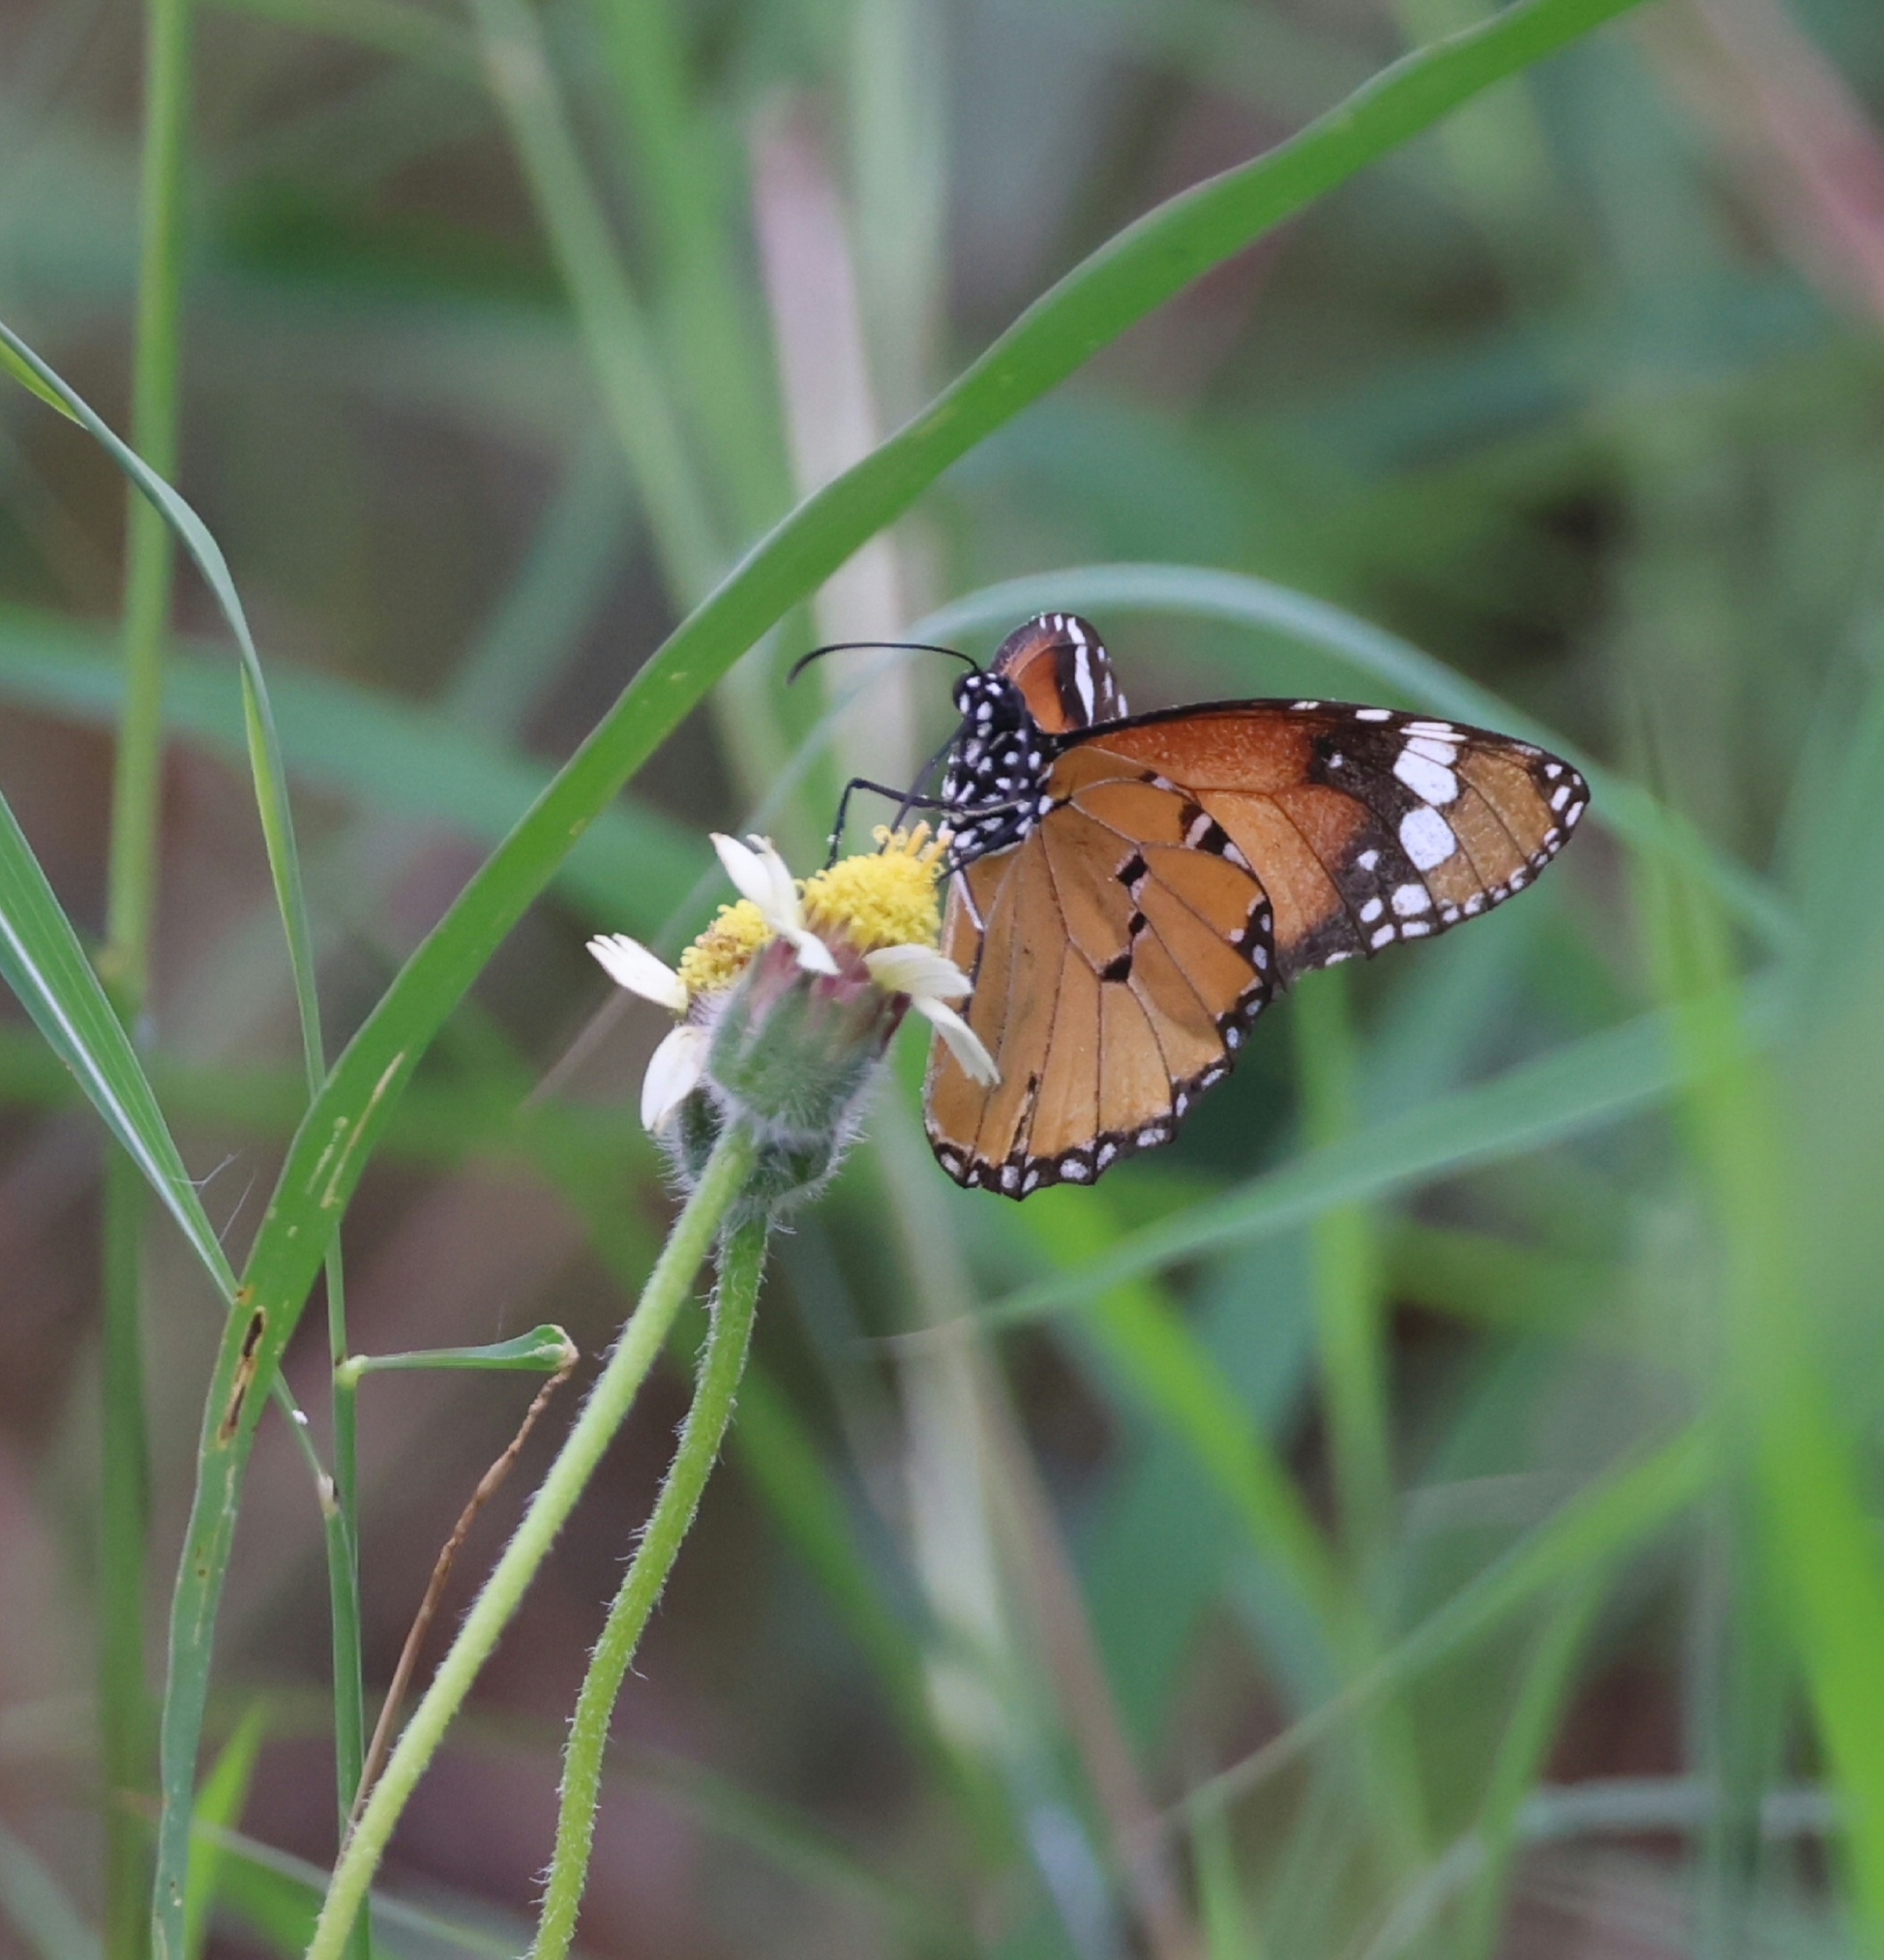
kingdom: Animalia
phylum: Arthropoda
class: Insecta
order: Lepidoptera
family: Nymphalidae
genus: Danaus
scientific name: Danaus chrysippus
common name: Plain tiger
